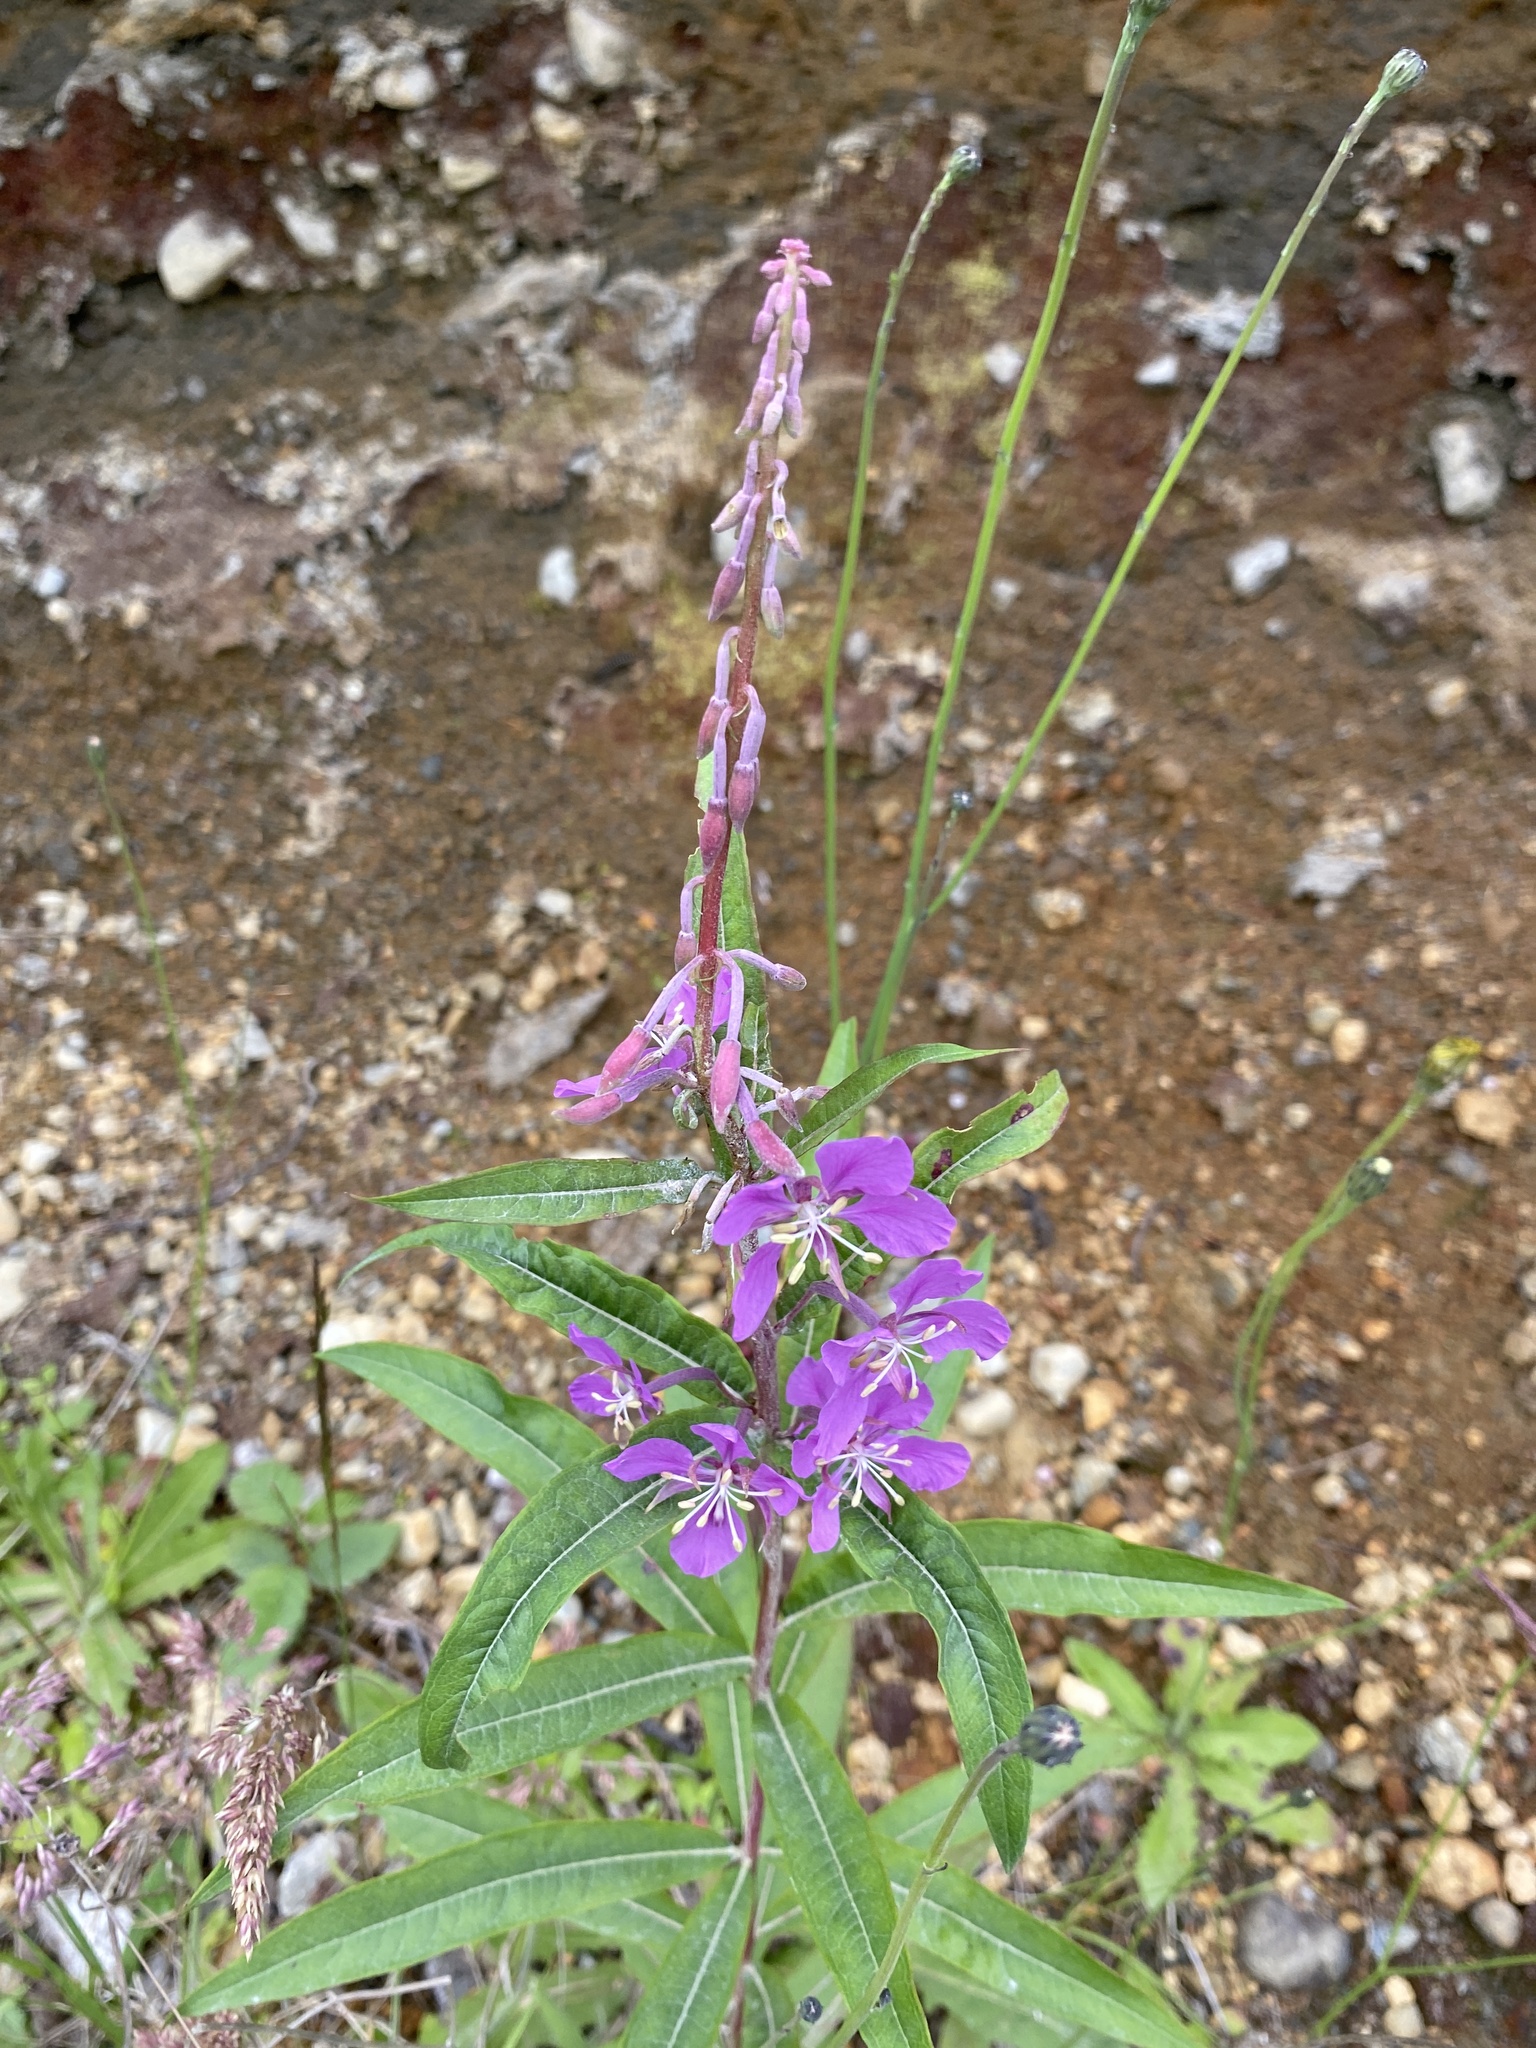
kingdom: Plantae
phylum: Tracheophyta
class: Magnoliopsida
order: Myrtales
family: Onagraceae
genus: Chamaenerion
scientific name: Chamaenerion angustifolium
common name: Fireweed
